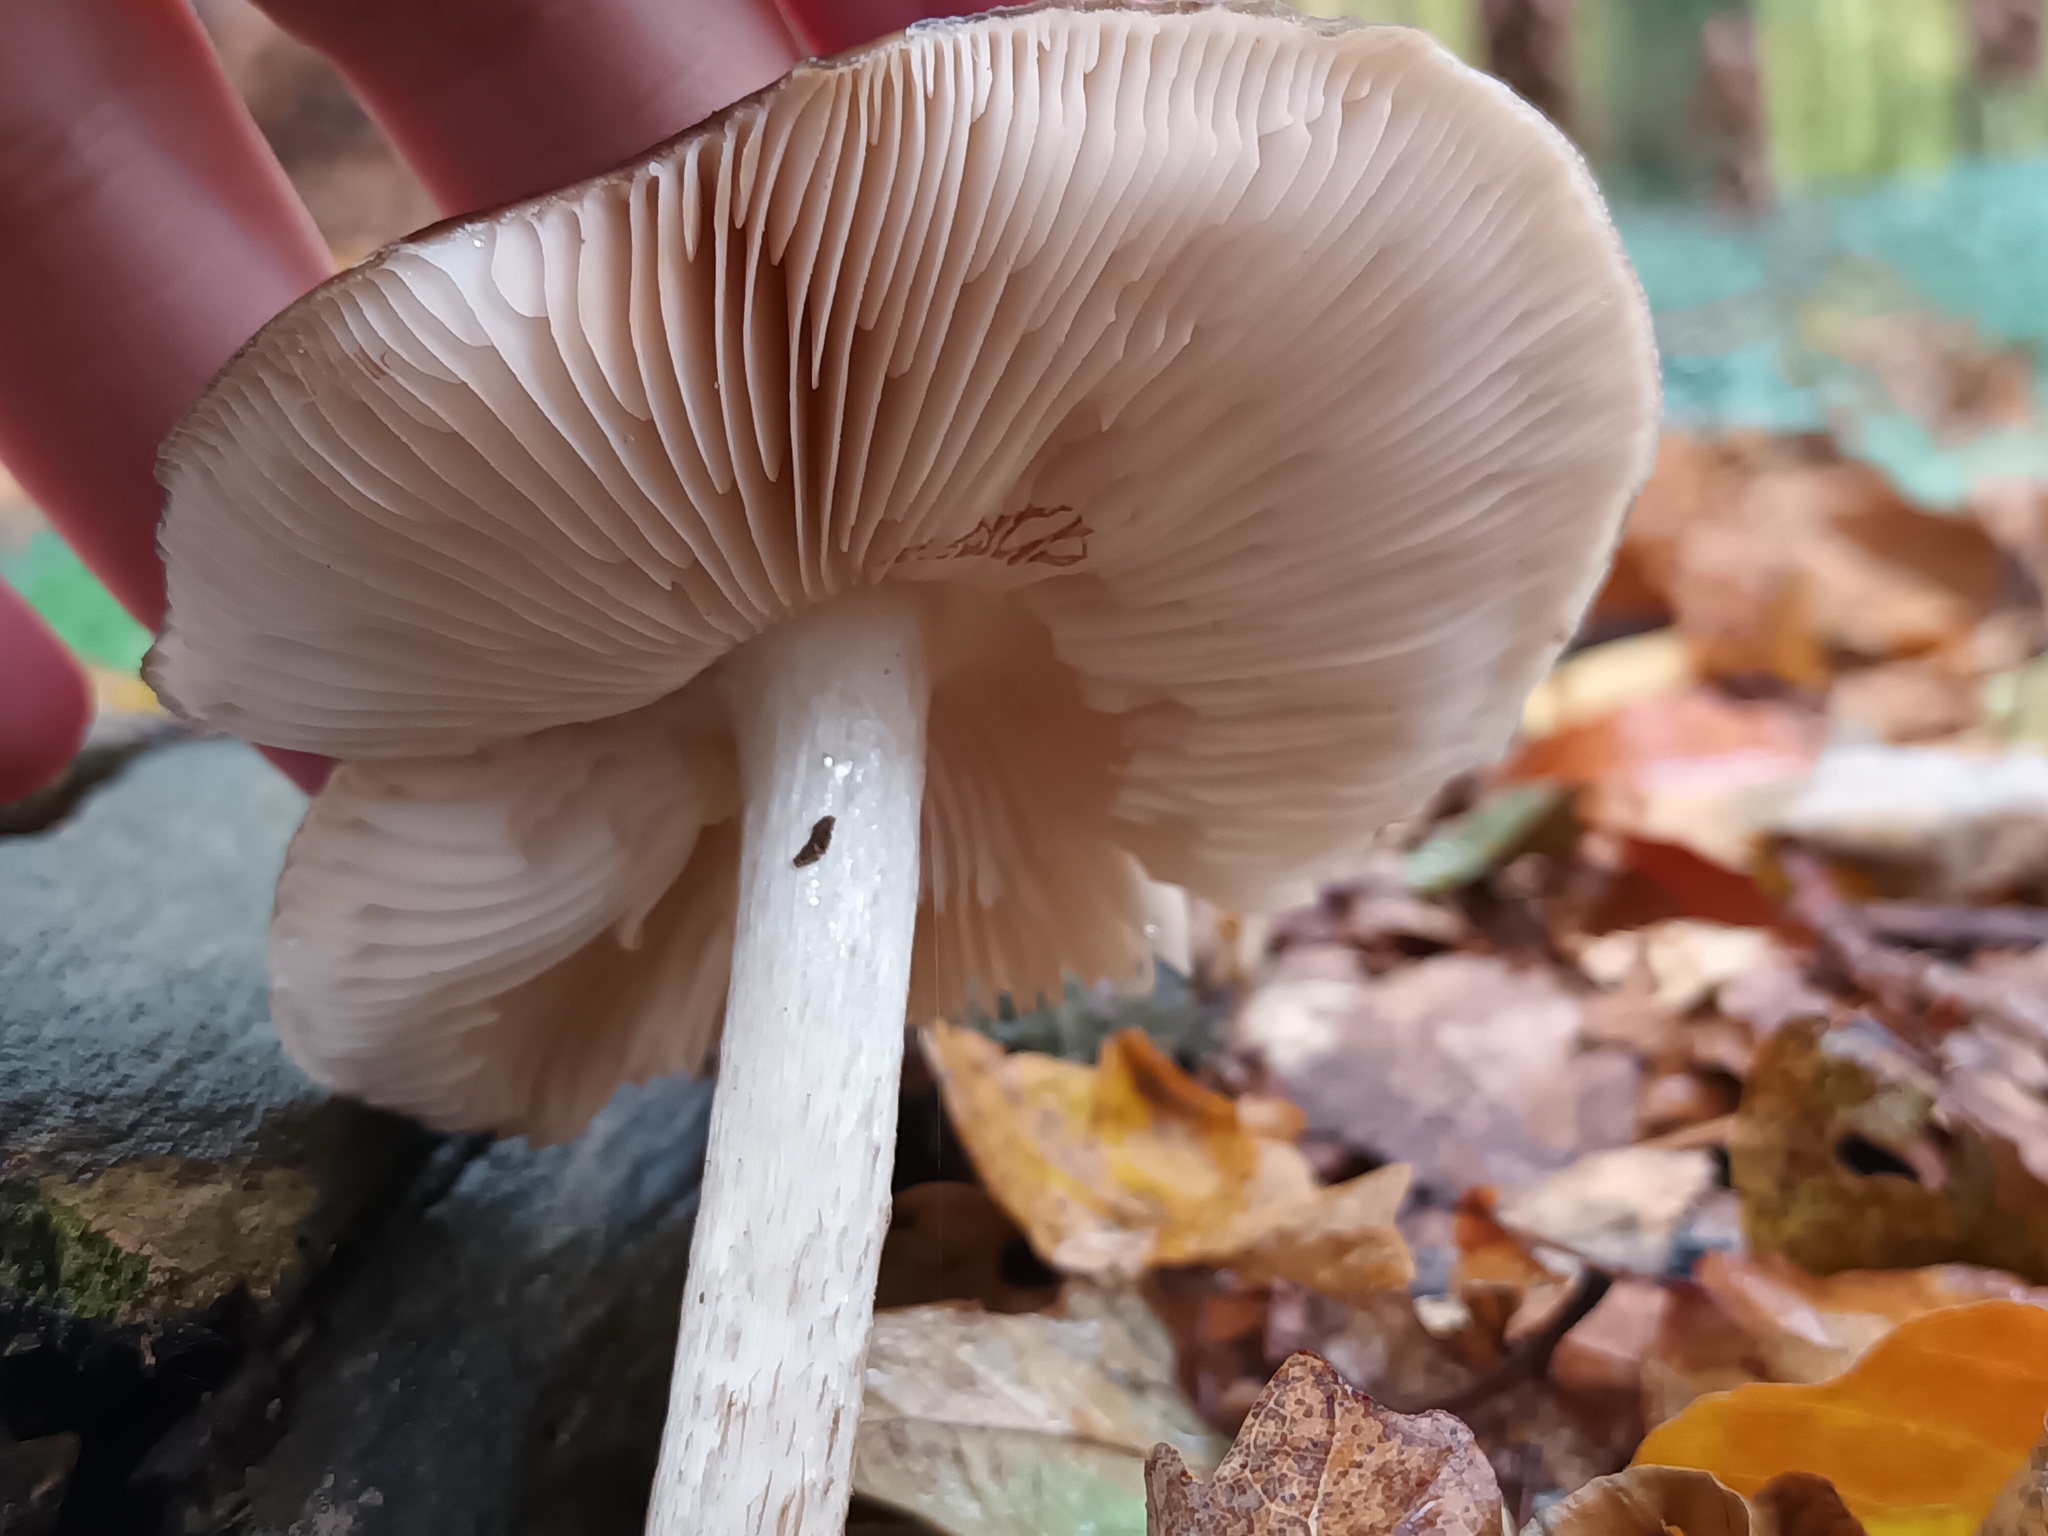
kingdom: Fungi
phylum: Basidiomycota
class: Agaricomycetes
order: Agaricales
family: Pluteaceae
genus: Pluteus
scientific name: Pluteus cervinus
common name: Deer shield
